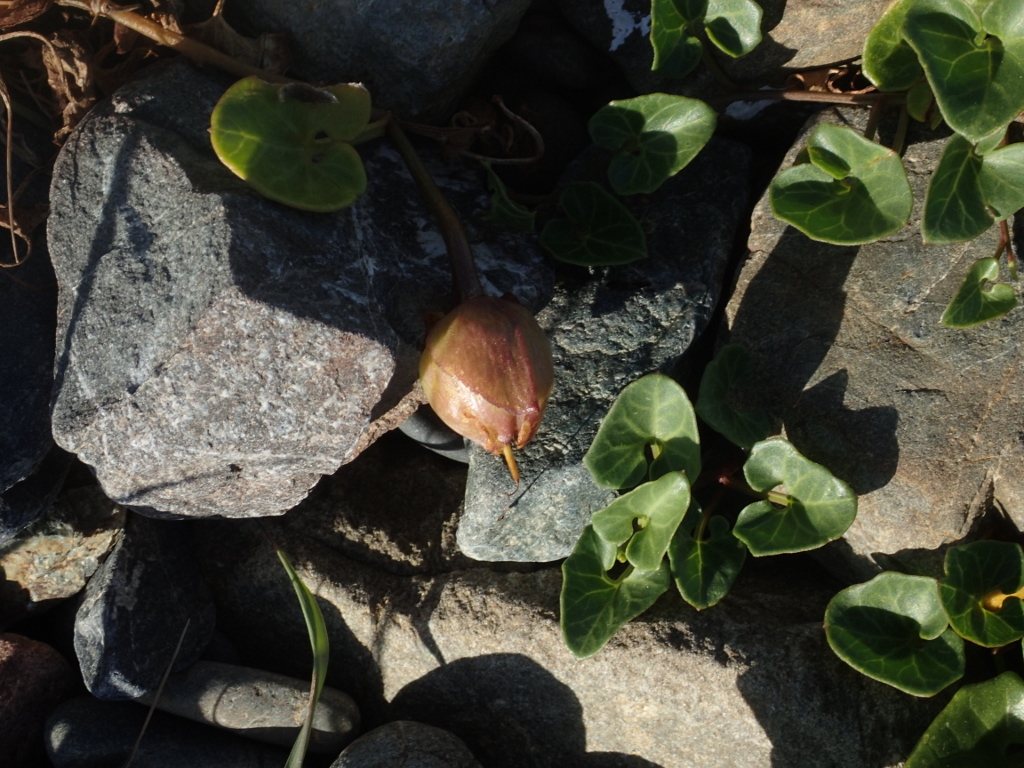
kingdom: Plantae
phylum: Tracheophyta
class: Magnoliopsida
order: Solanales
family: Convolvulaceae
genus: Calystegia
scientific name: Calystegia soldanella
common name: Sea bindweed
